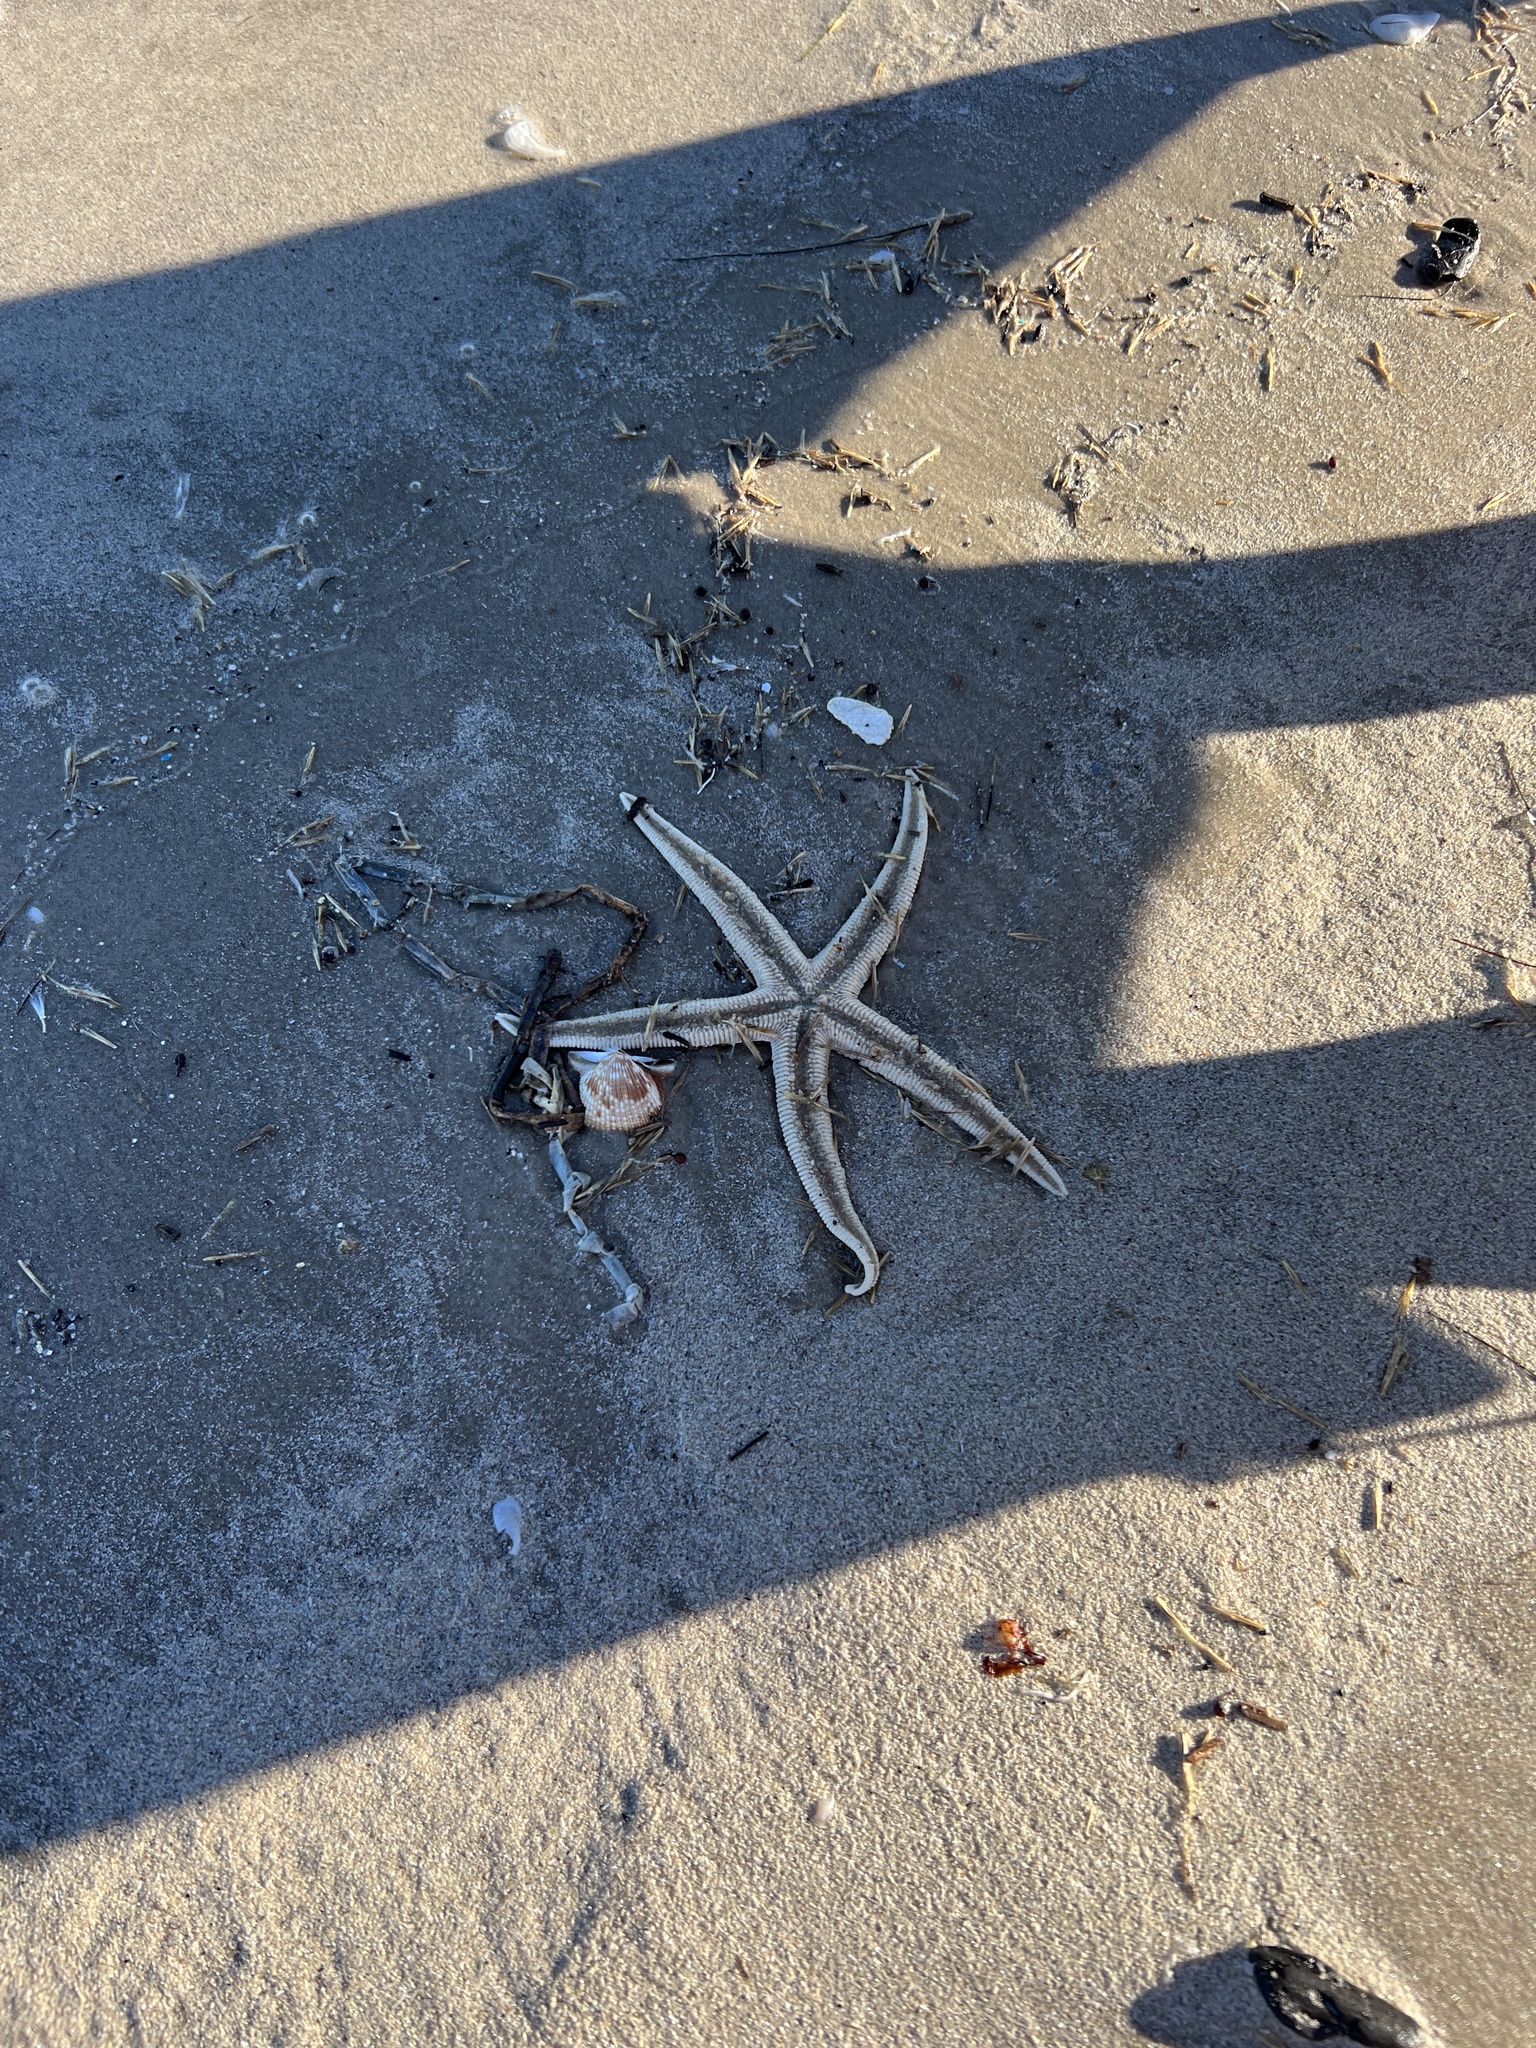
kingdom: Animalia
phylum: Echinodermata
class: Asteroidea
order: Paxillosida
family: Luidiidae
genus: Luidia
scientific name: Luidia clathrata
